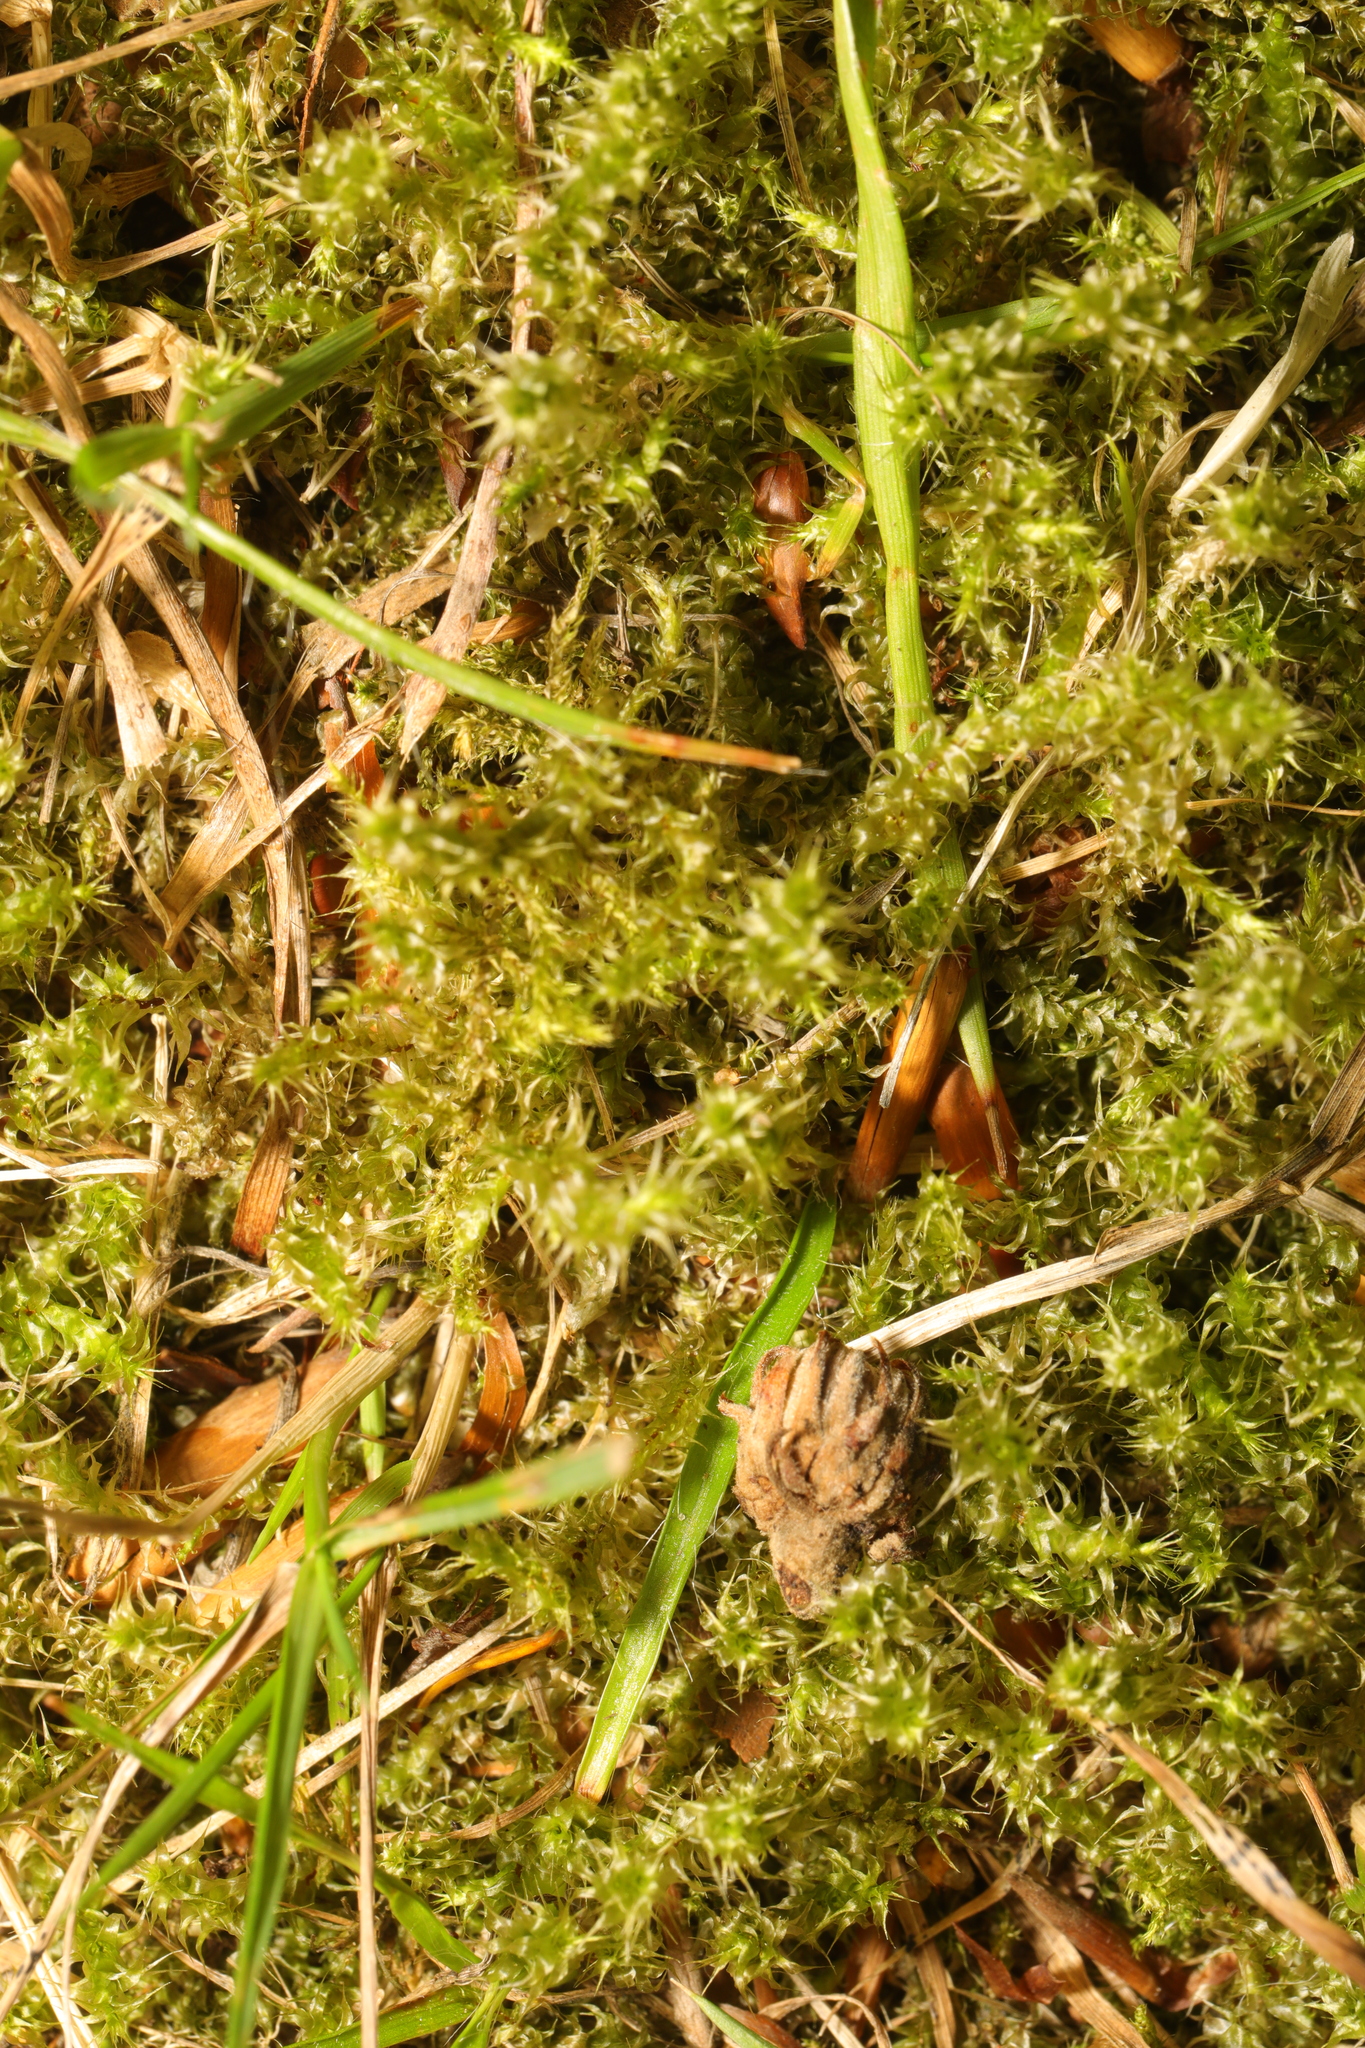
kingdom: Plantae
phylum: Bryophyta
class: Bryopsida
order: Hypnales
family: Hylocomiaceae
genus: Rhytidiadelphus
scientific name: Rhytidiadelphus squarrosus
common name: Springy turf-moss
